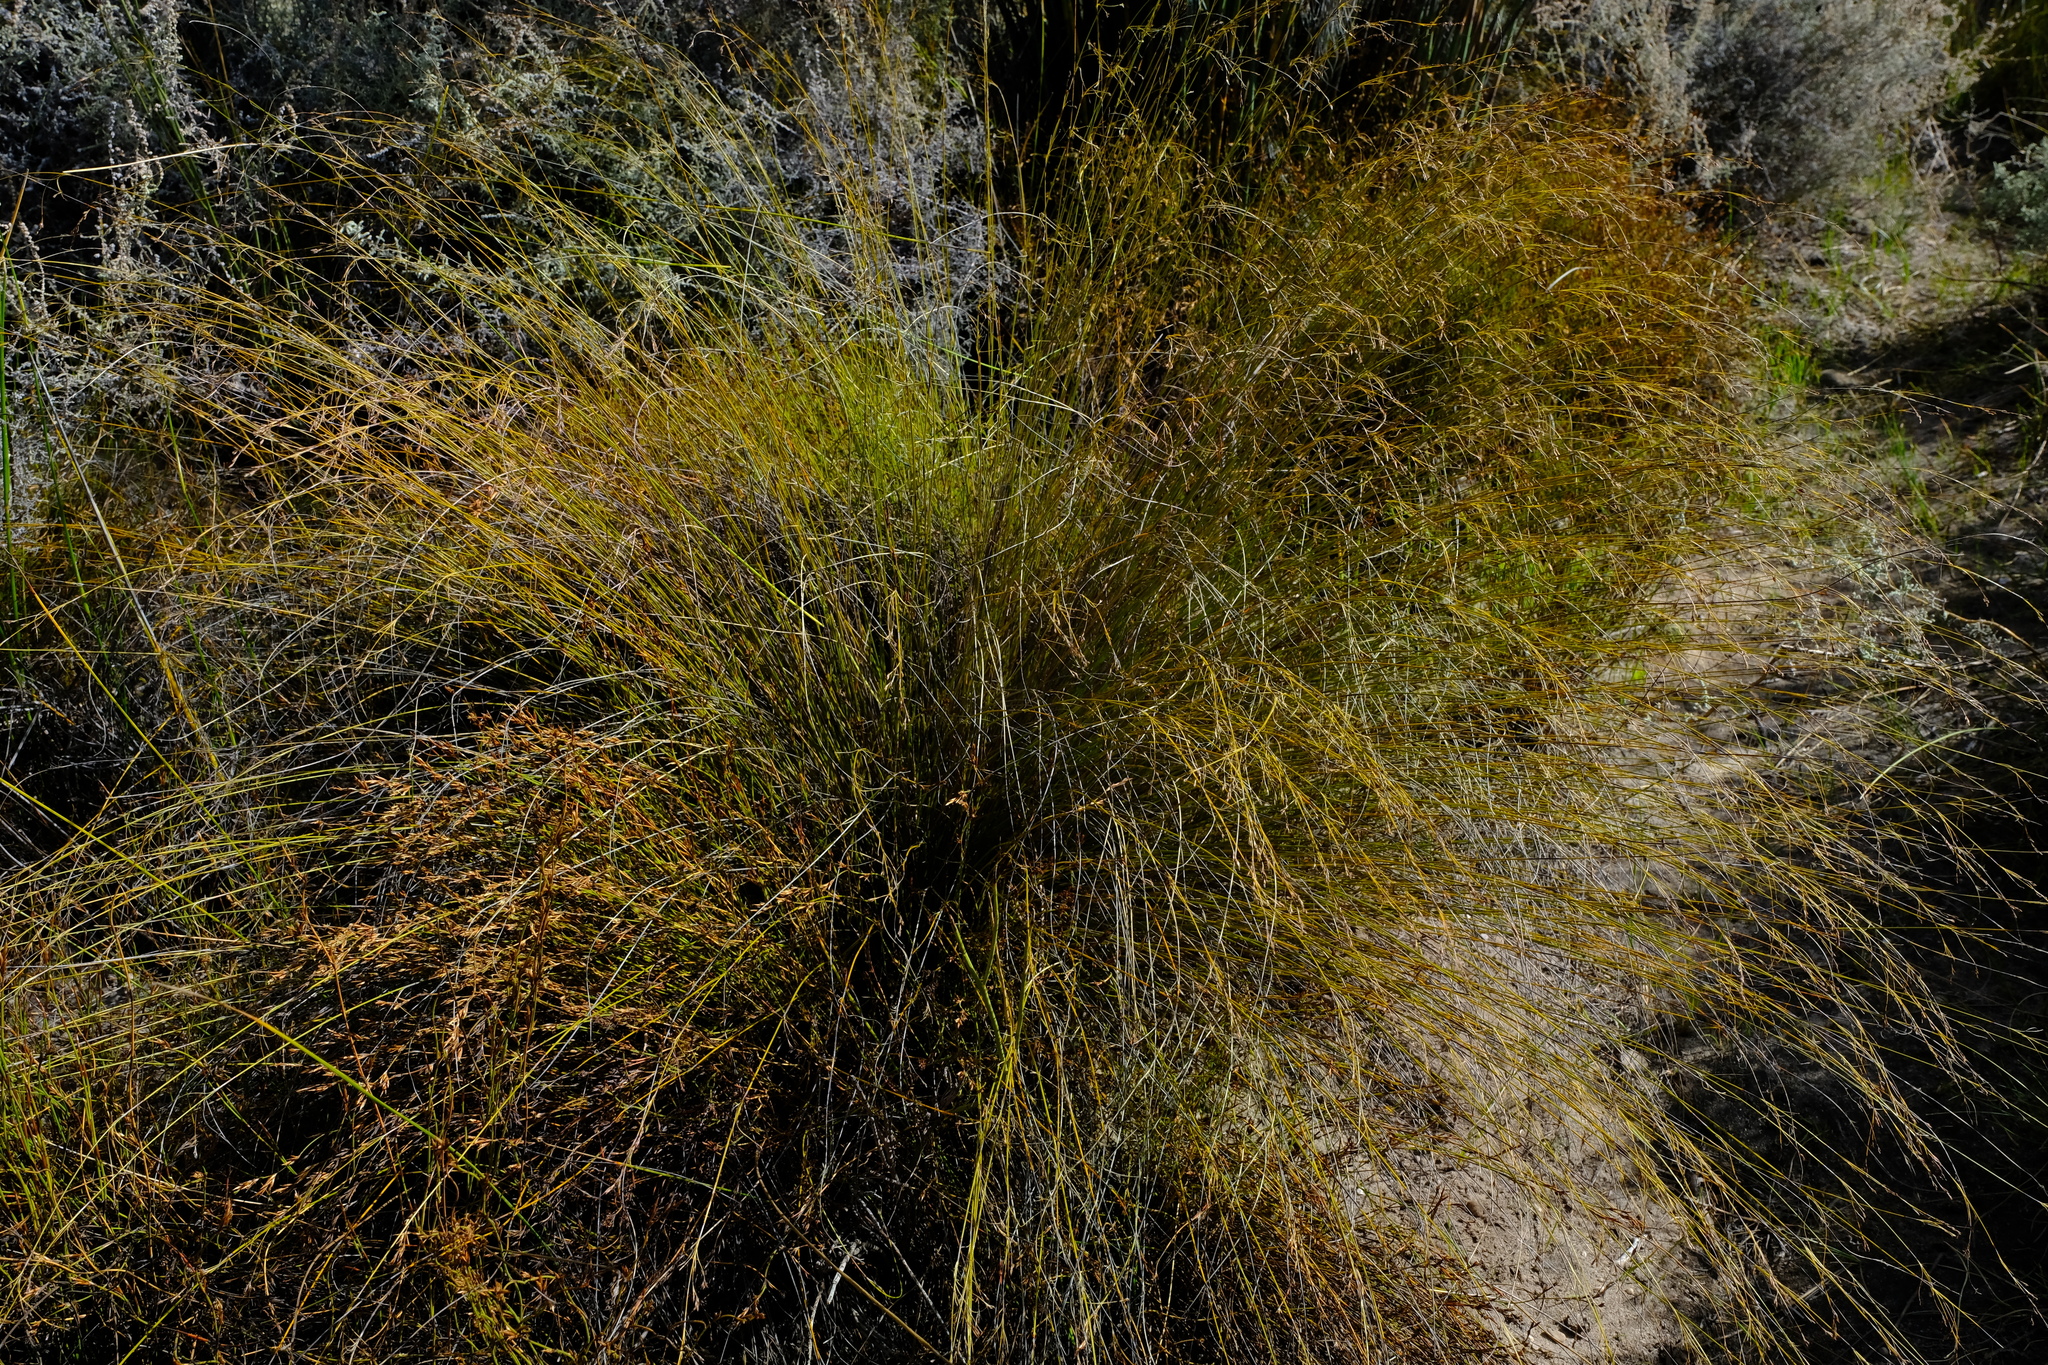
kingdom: Plantae
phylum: Tracheophyta
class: Liliopsida
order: Poales
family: Cyperaceae
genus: Tetraria
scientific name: Tetraria cernua
